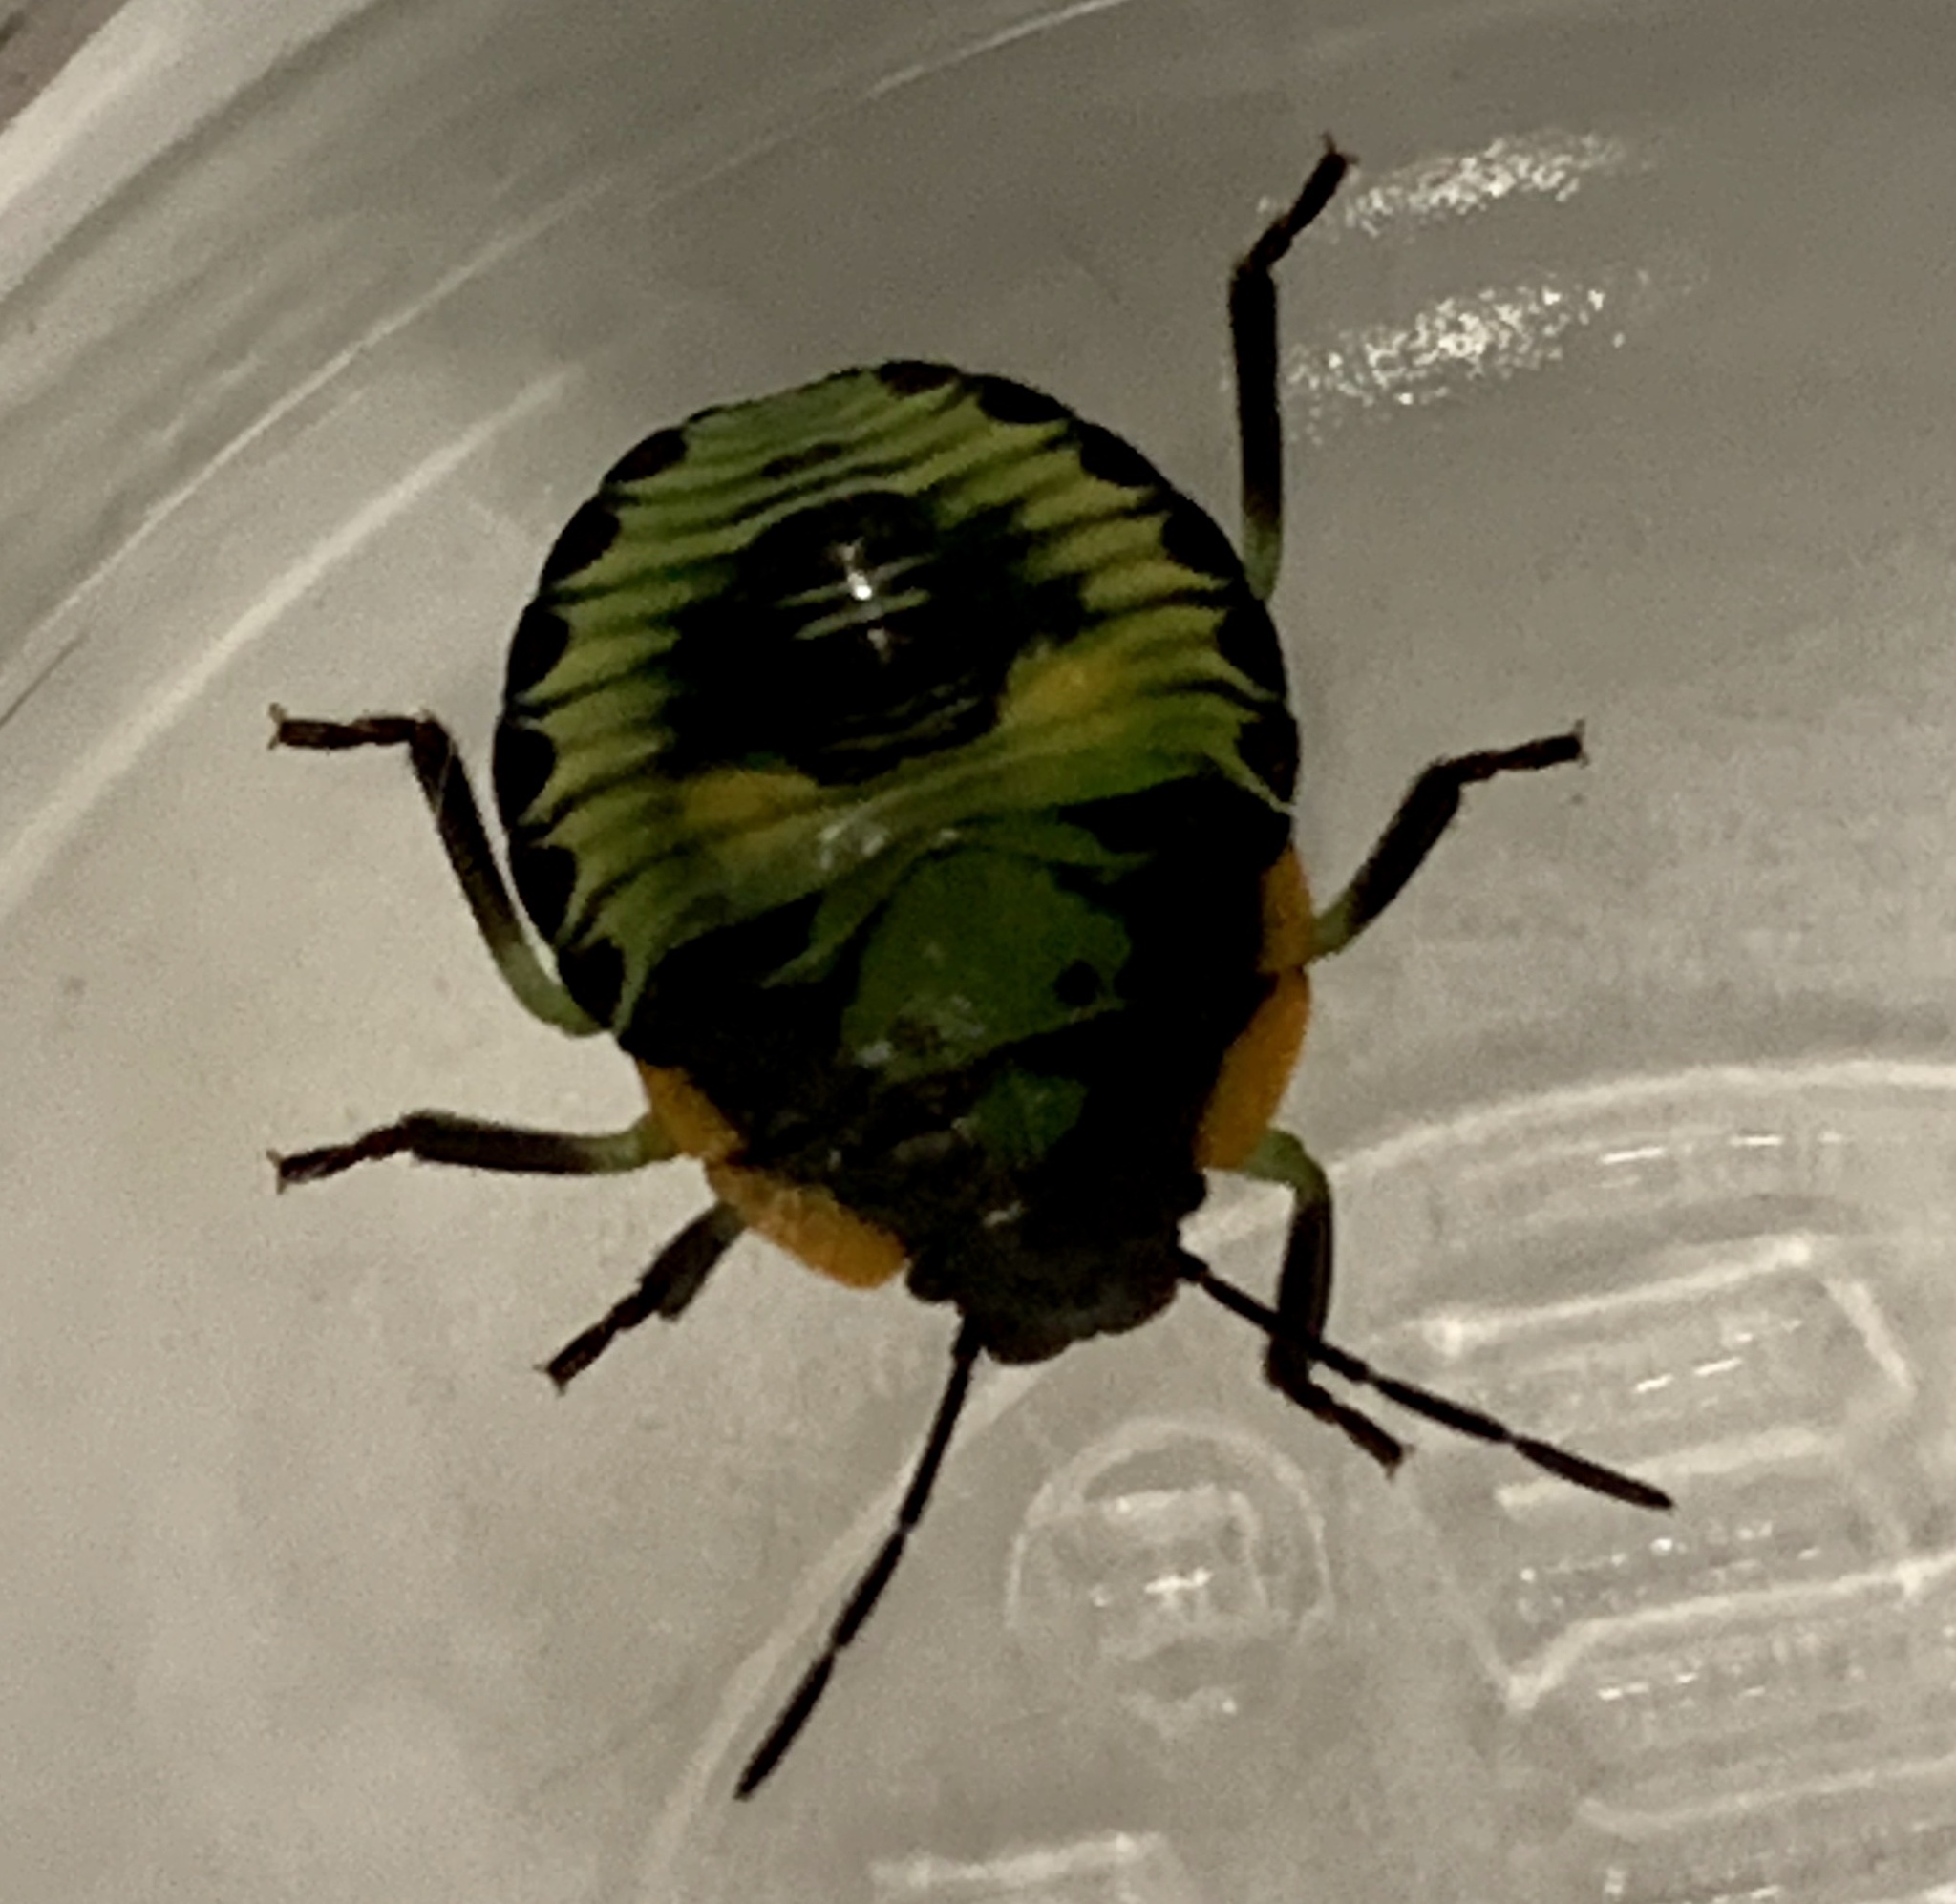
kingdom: Animalia
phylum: Arthropoda
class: Insecta
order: Hemiptera
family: Pentatomidae
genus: Chinavia
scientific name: Chinavia hilaris
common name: Green stink bug
